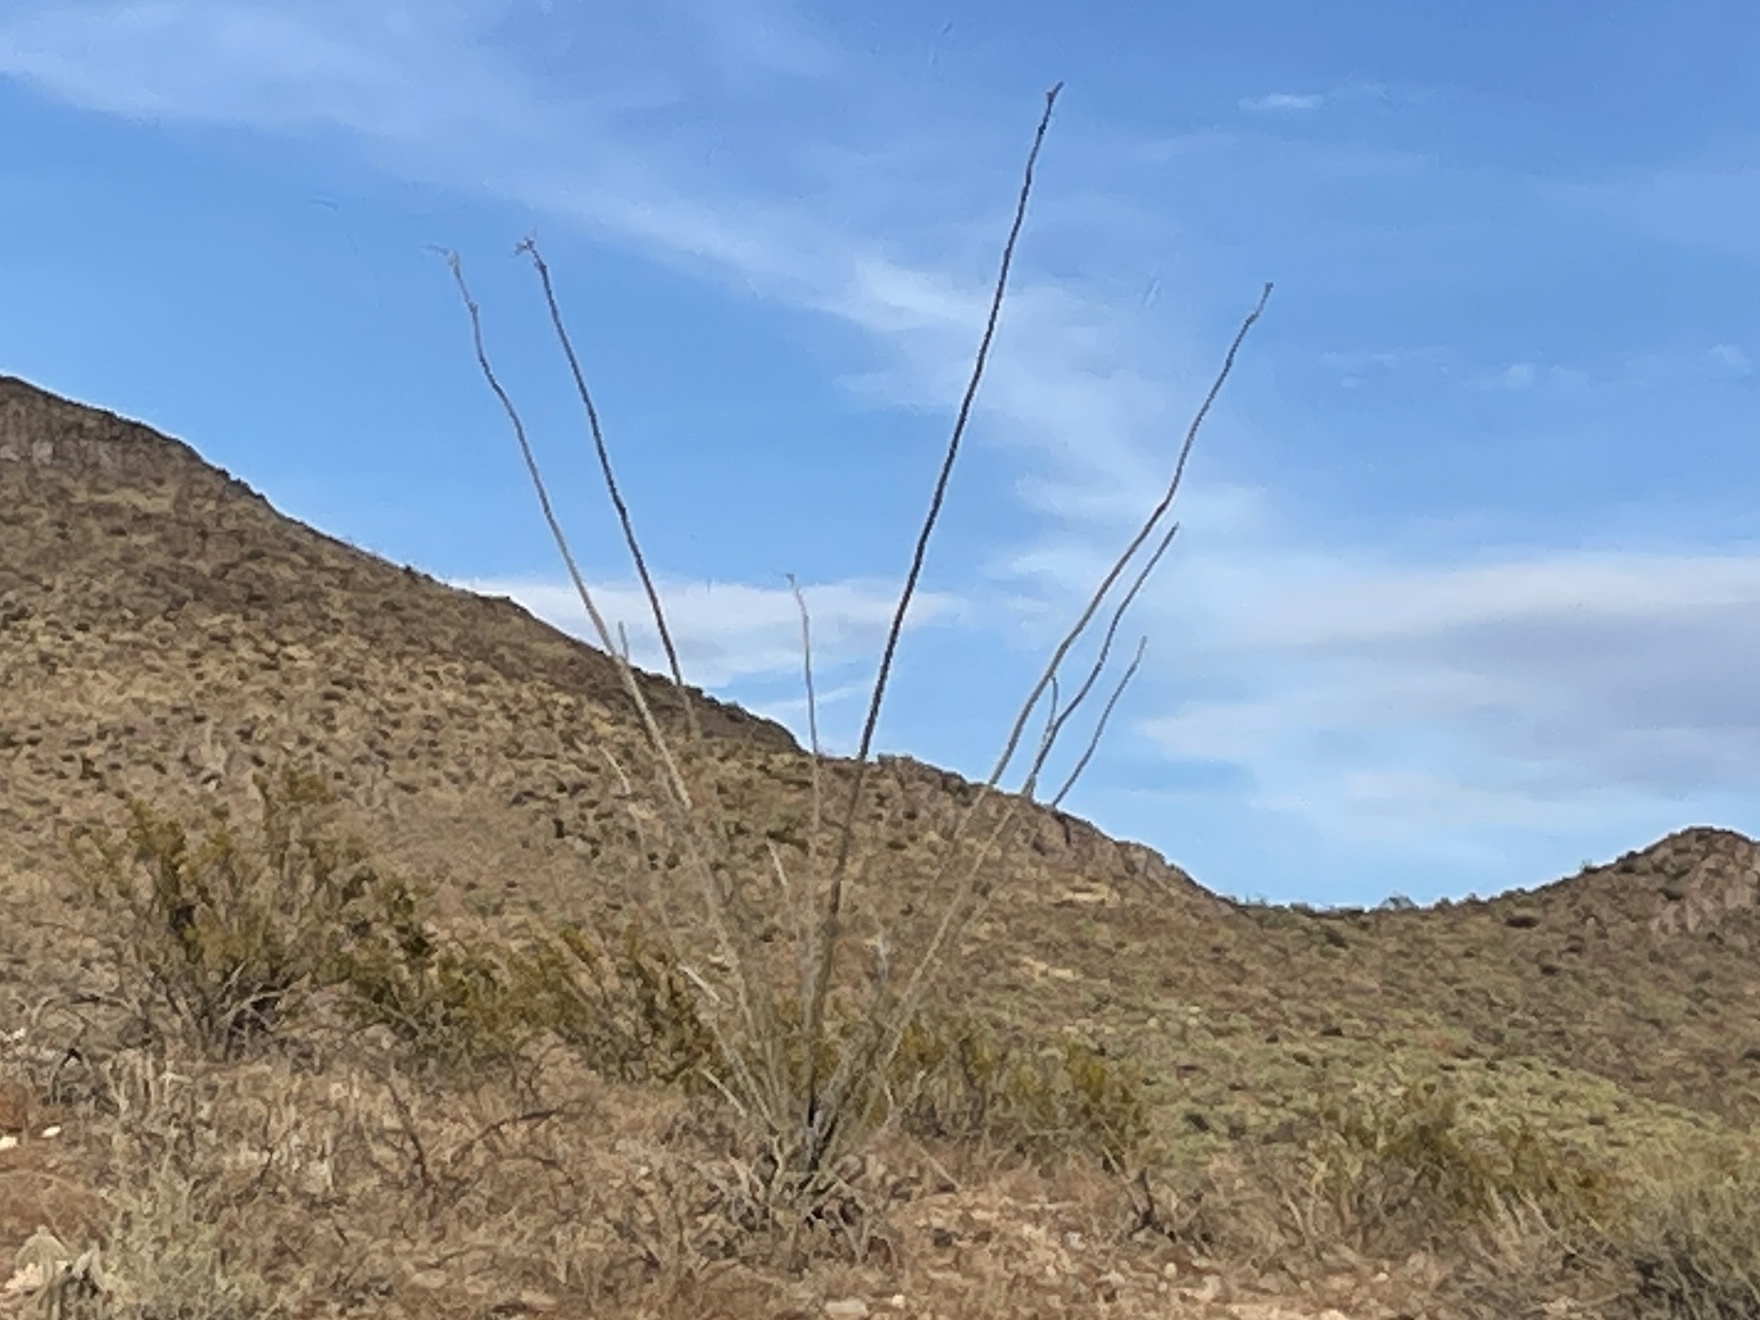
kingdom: Plantae
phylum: Tracheophyta
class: Magnoliopsida
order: Ericales
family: Fouquieriaceae
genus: Fouquieria
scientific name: Fouquieria splendens
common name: Vine-cactus
